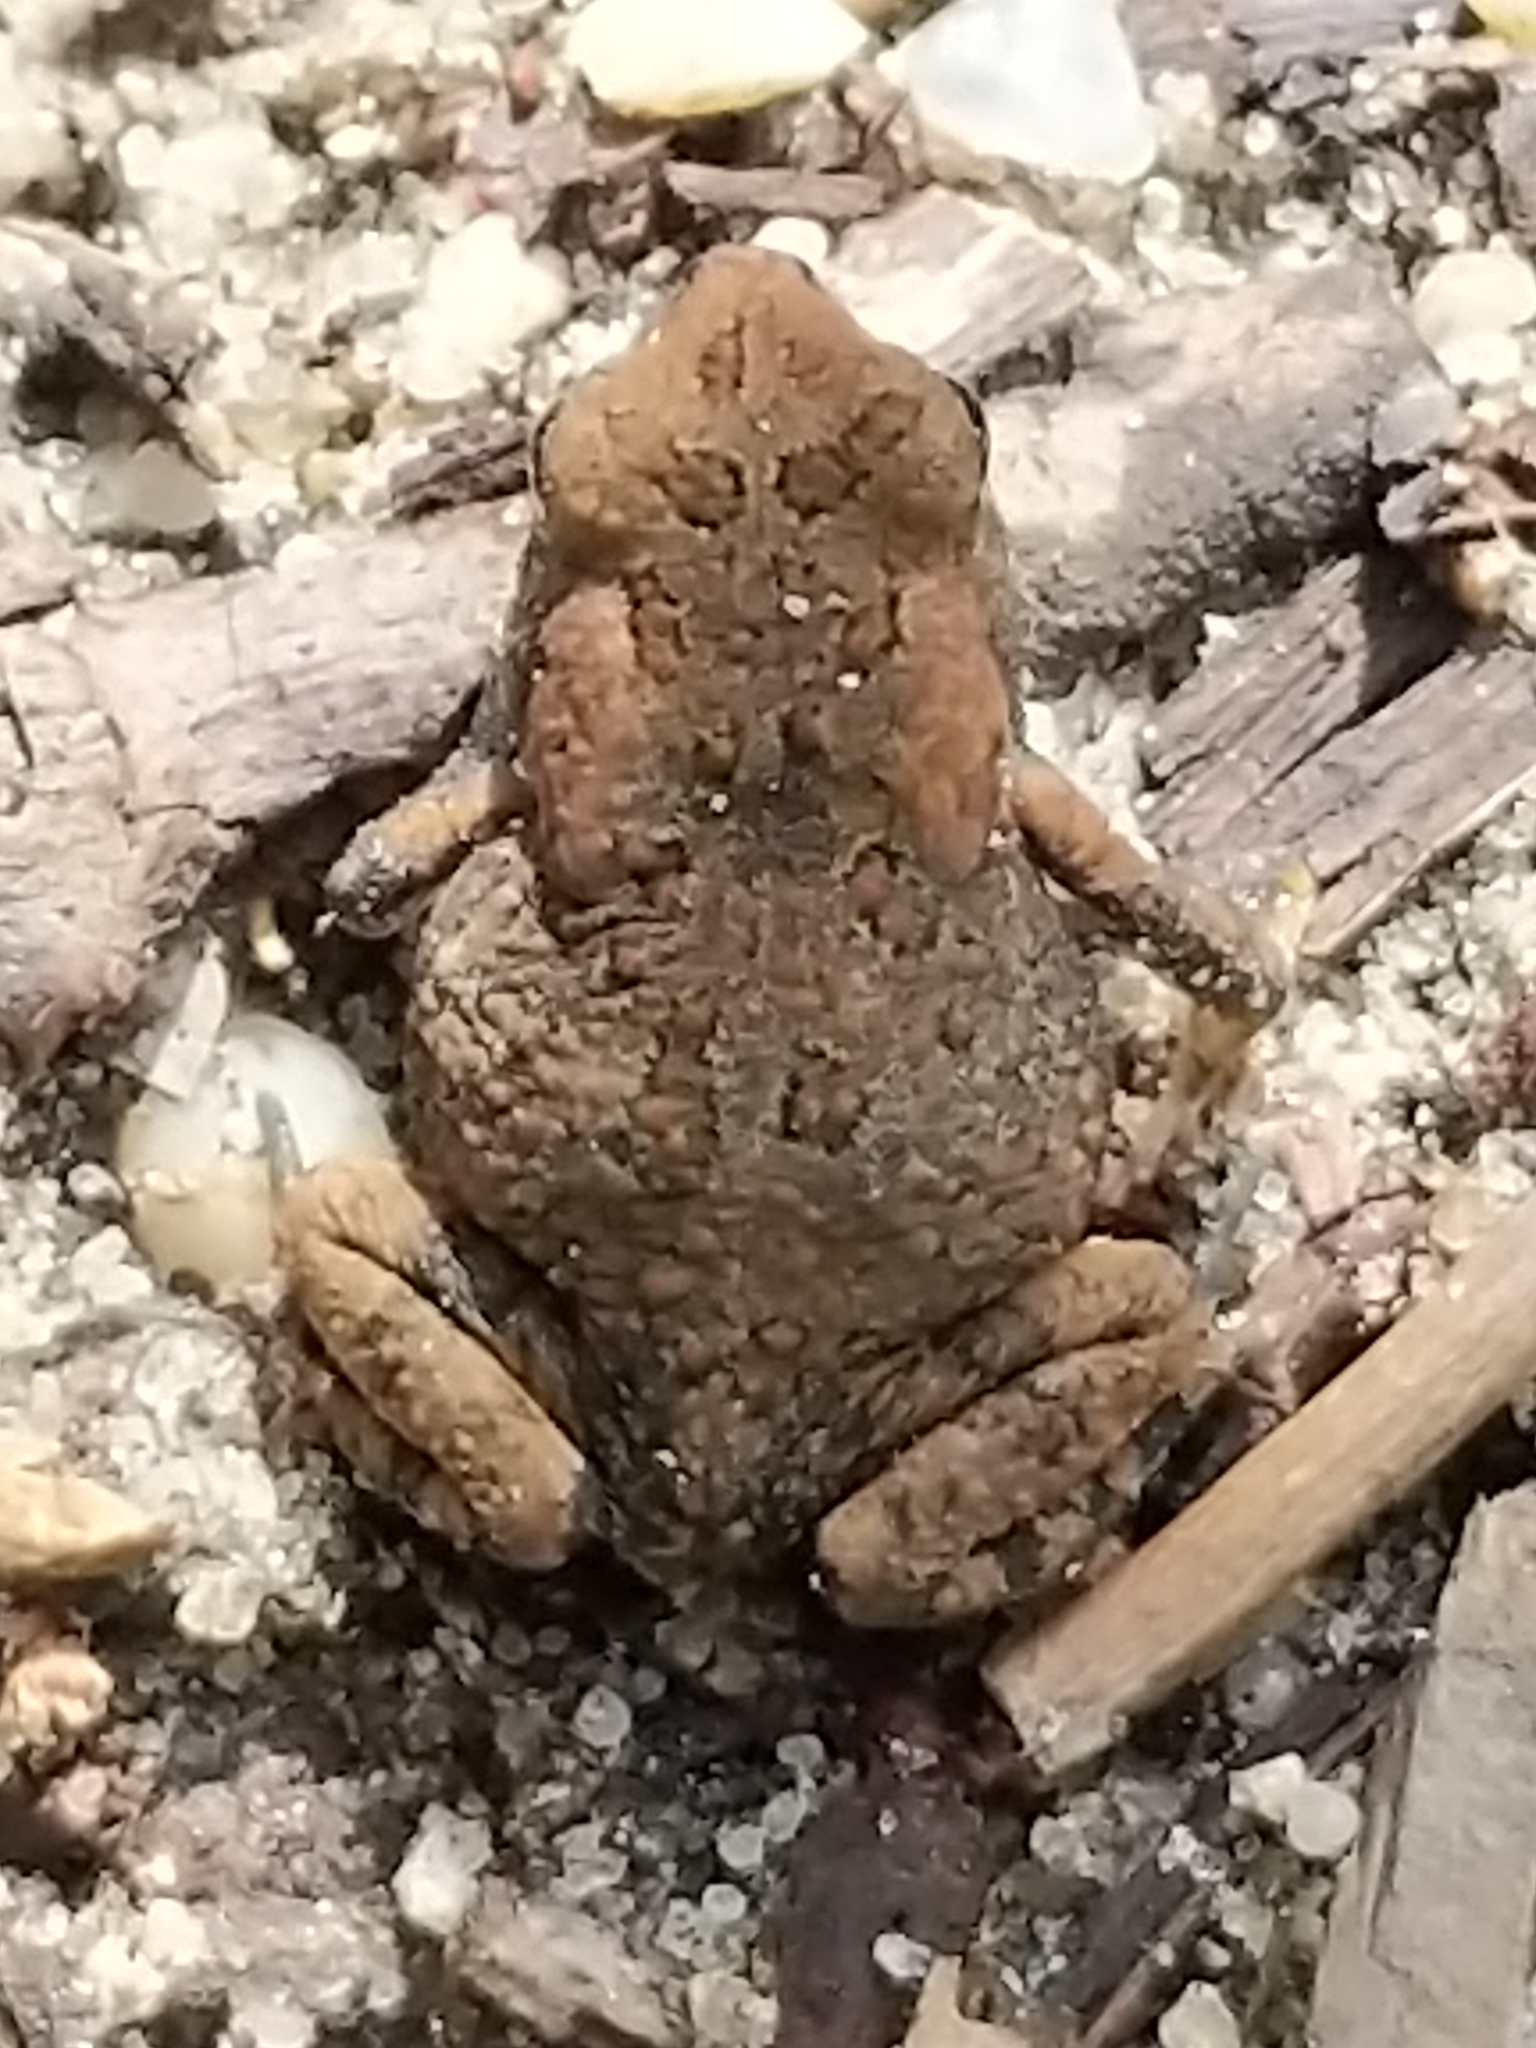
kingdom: Animalia
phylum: Chordata
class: Amphibia
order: Anura
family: Bufonidae
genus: Anaxyrus
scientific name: Anaxyrus fowleri
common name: Fowler's toad
